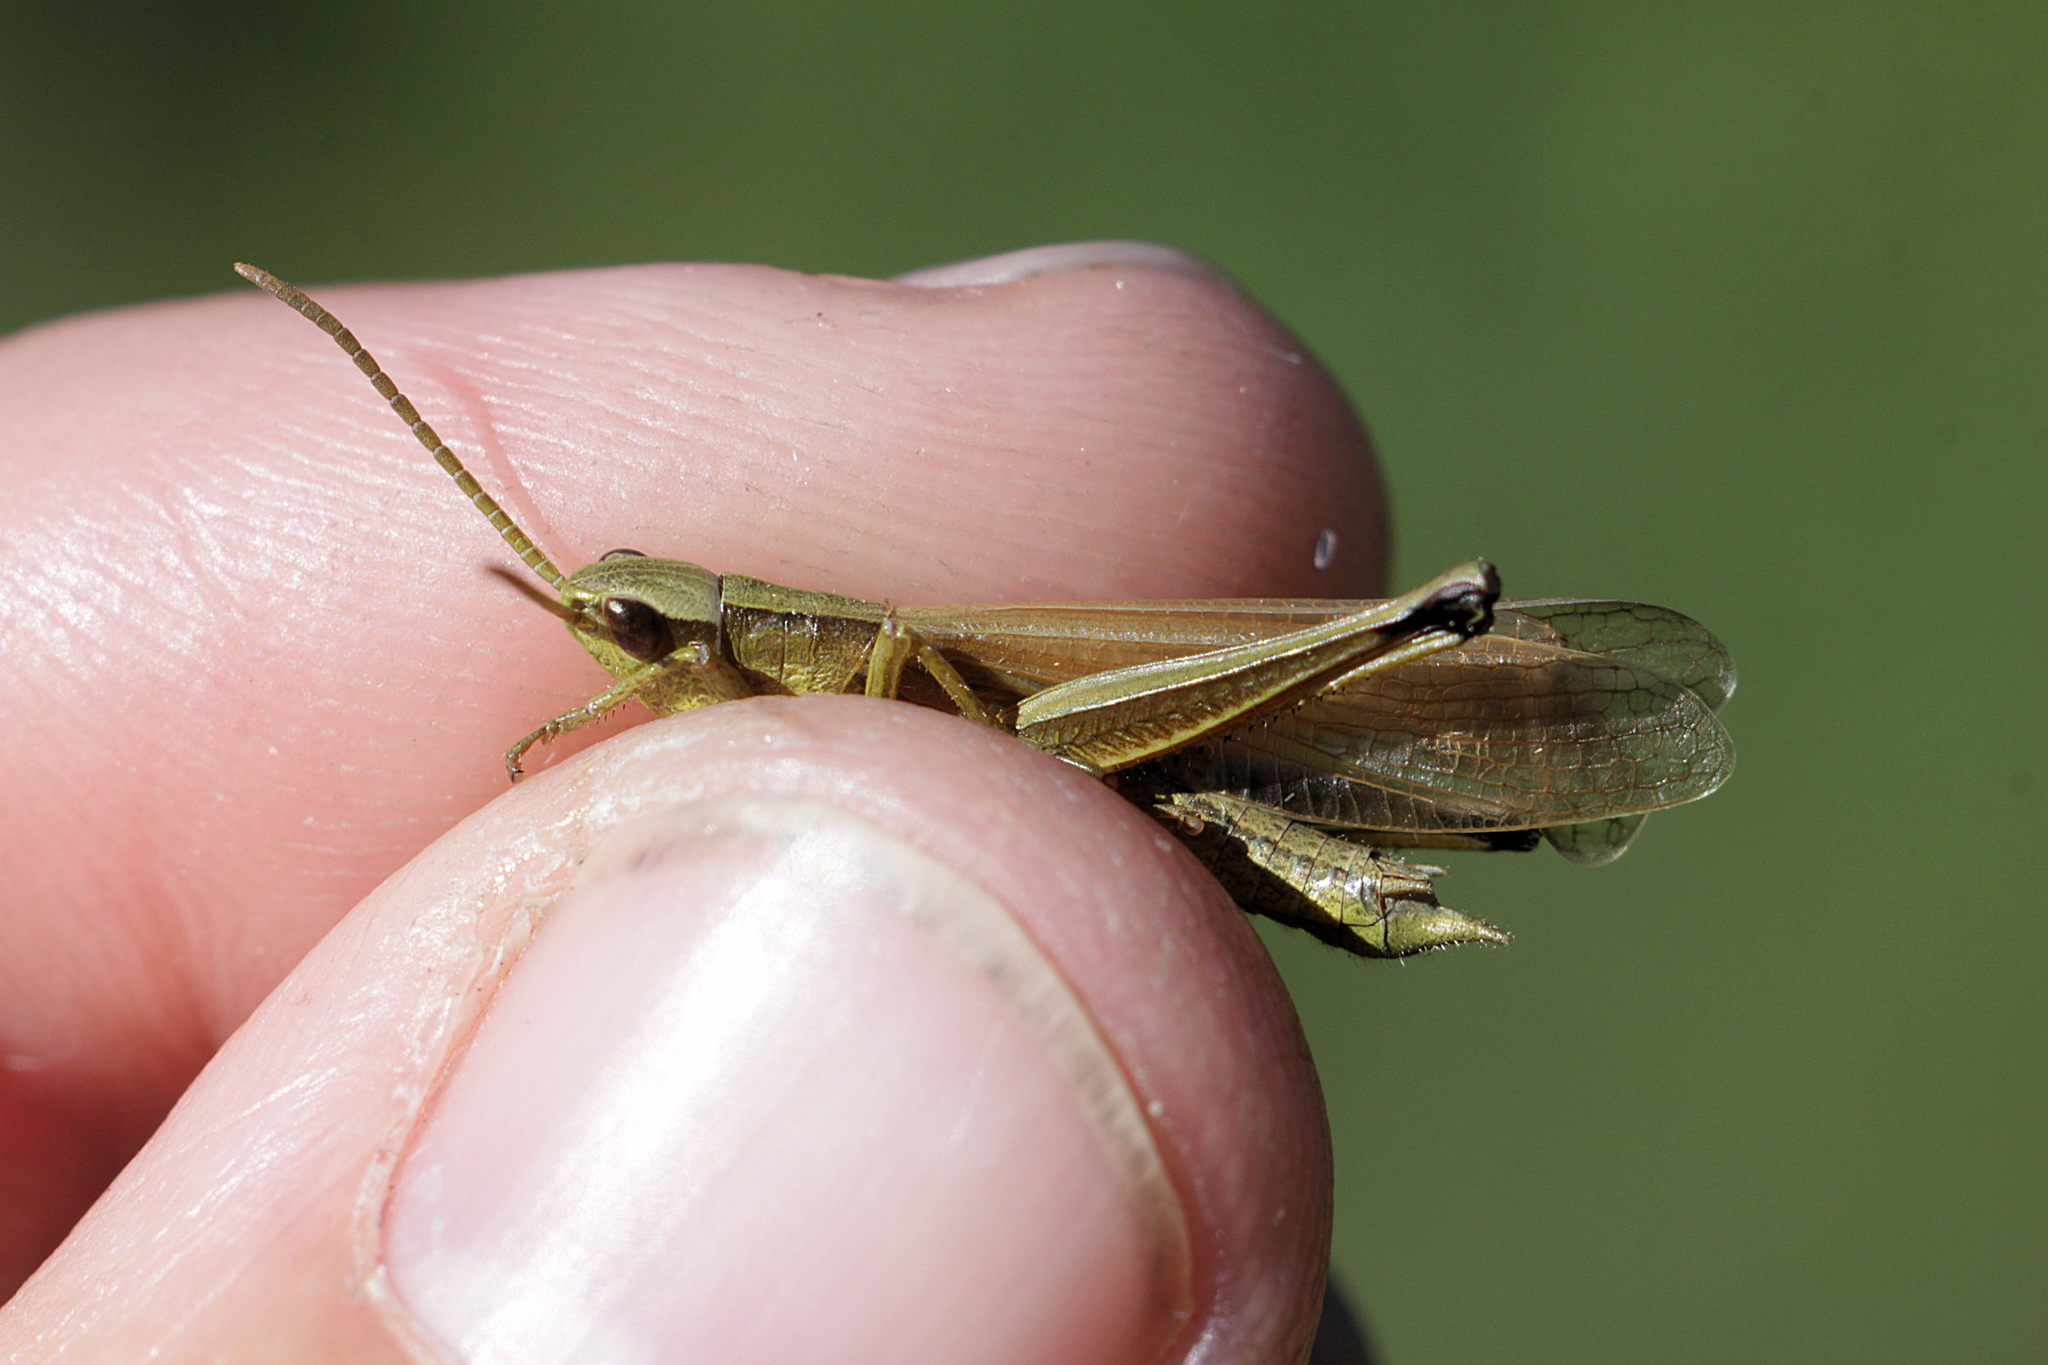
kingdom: Animalia
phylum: Arthropoda
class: Insecta
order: Orthoptera
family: Acrididae
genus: Chrysochraon
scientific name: Chrysochraon dispar
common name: Large gold grasshopper
